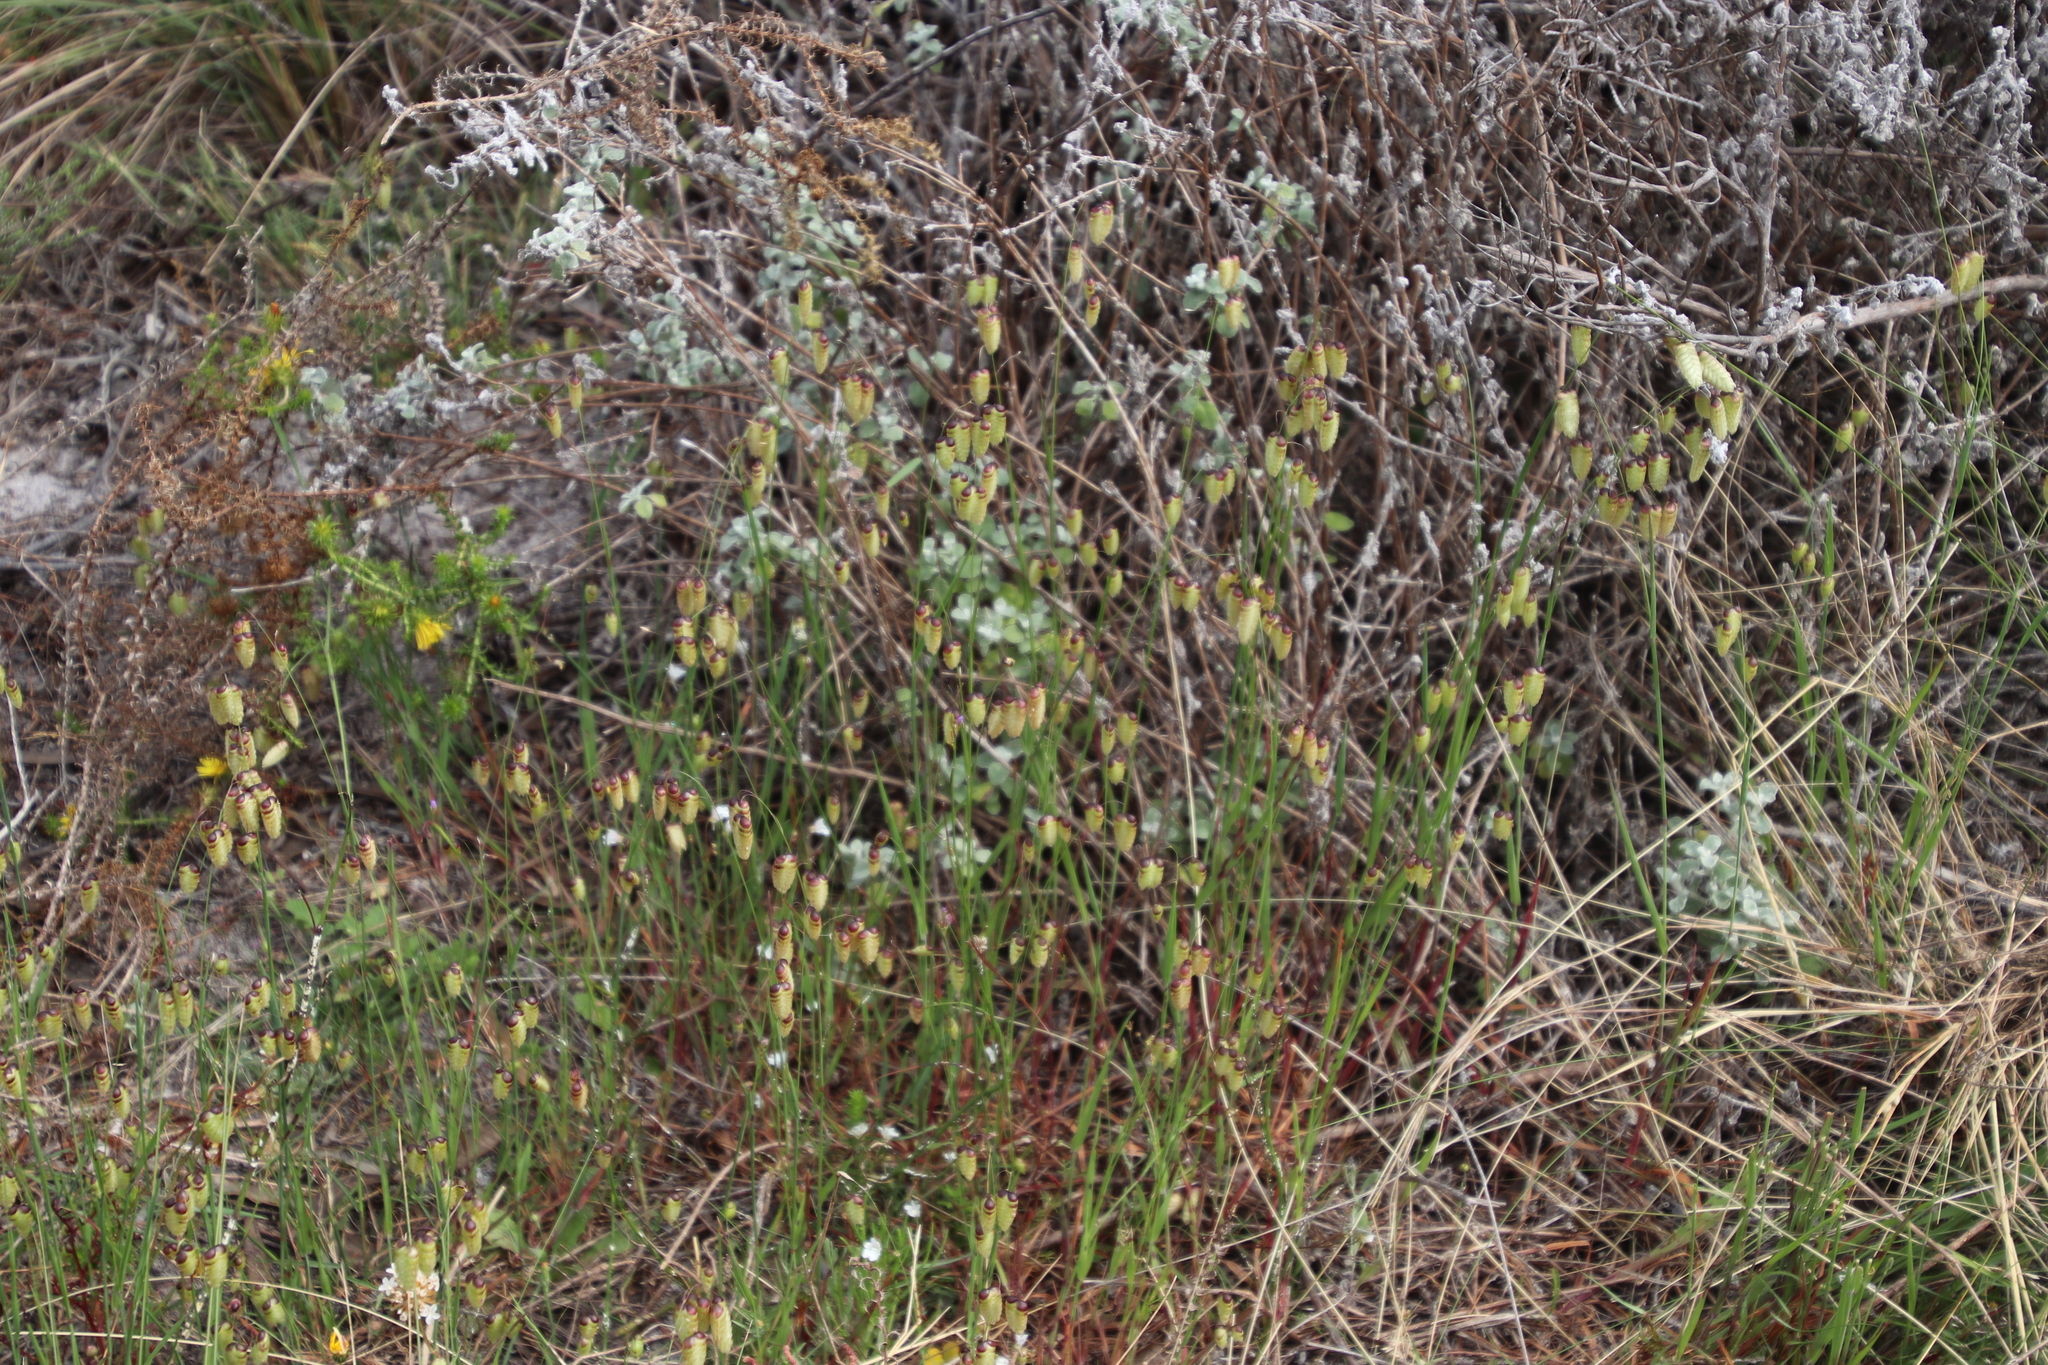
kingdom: Plantae
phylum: Tracheophyta
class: Liliopsida
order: Poales
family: Poaceae
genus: Briza
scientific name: Briza maxima
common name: Big quakinggrass
